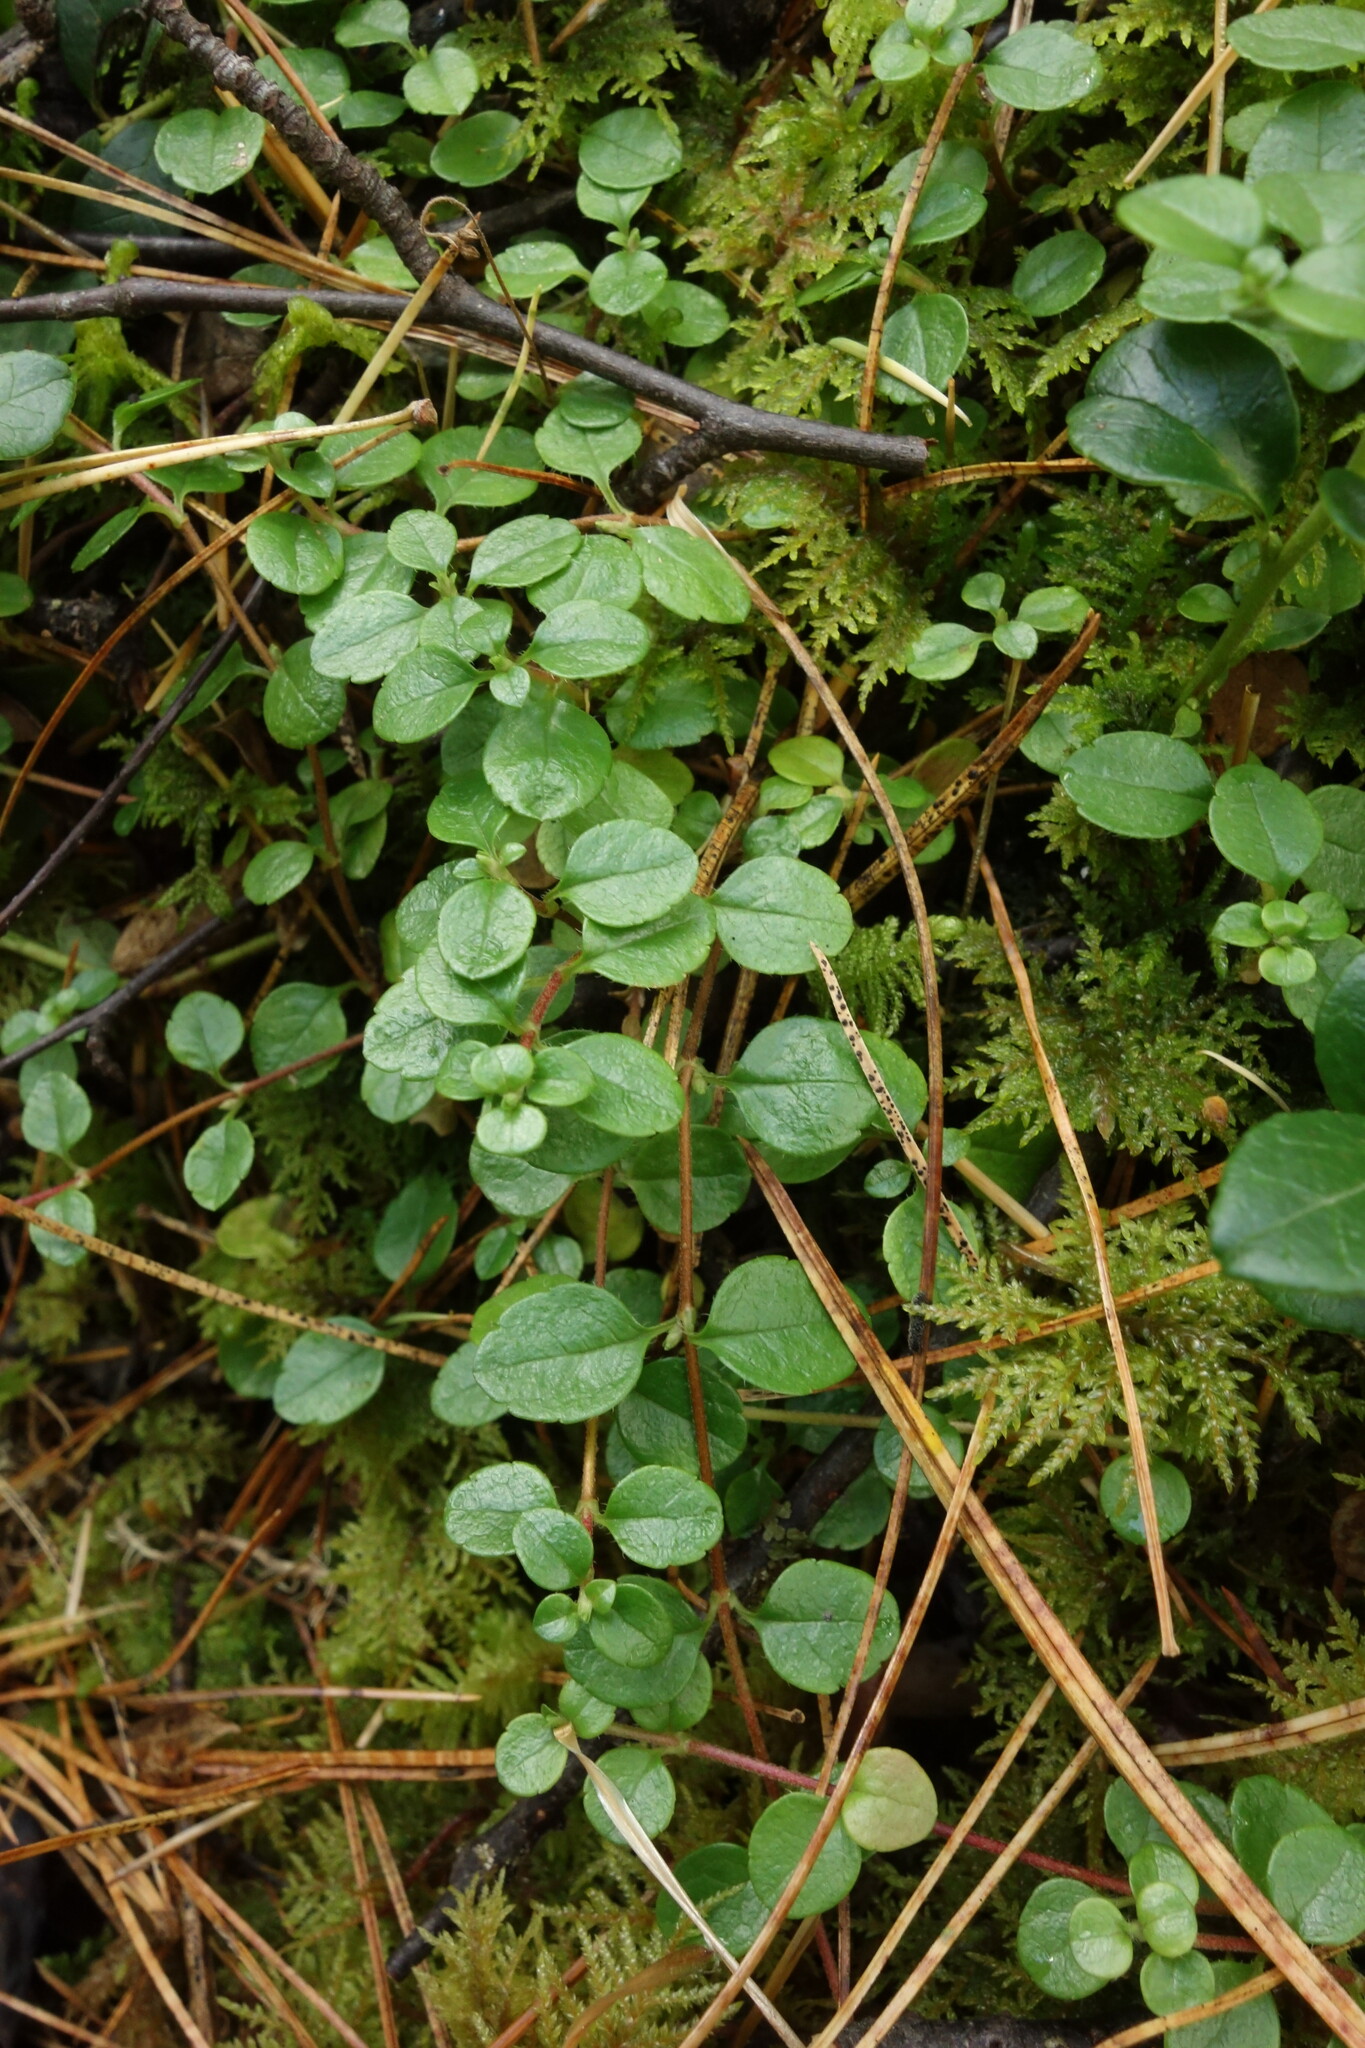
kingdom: Plantae
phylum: Tracheophyta
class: Magnoliopsida
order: Dipsacales
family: Caprifoliaceae
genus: Linnaea
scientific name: Linnaea borealis
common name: Twinflower
